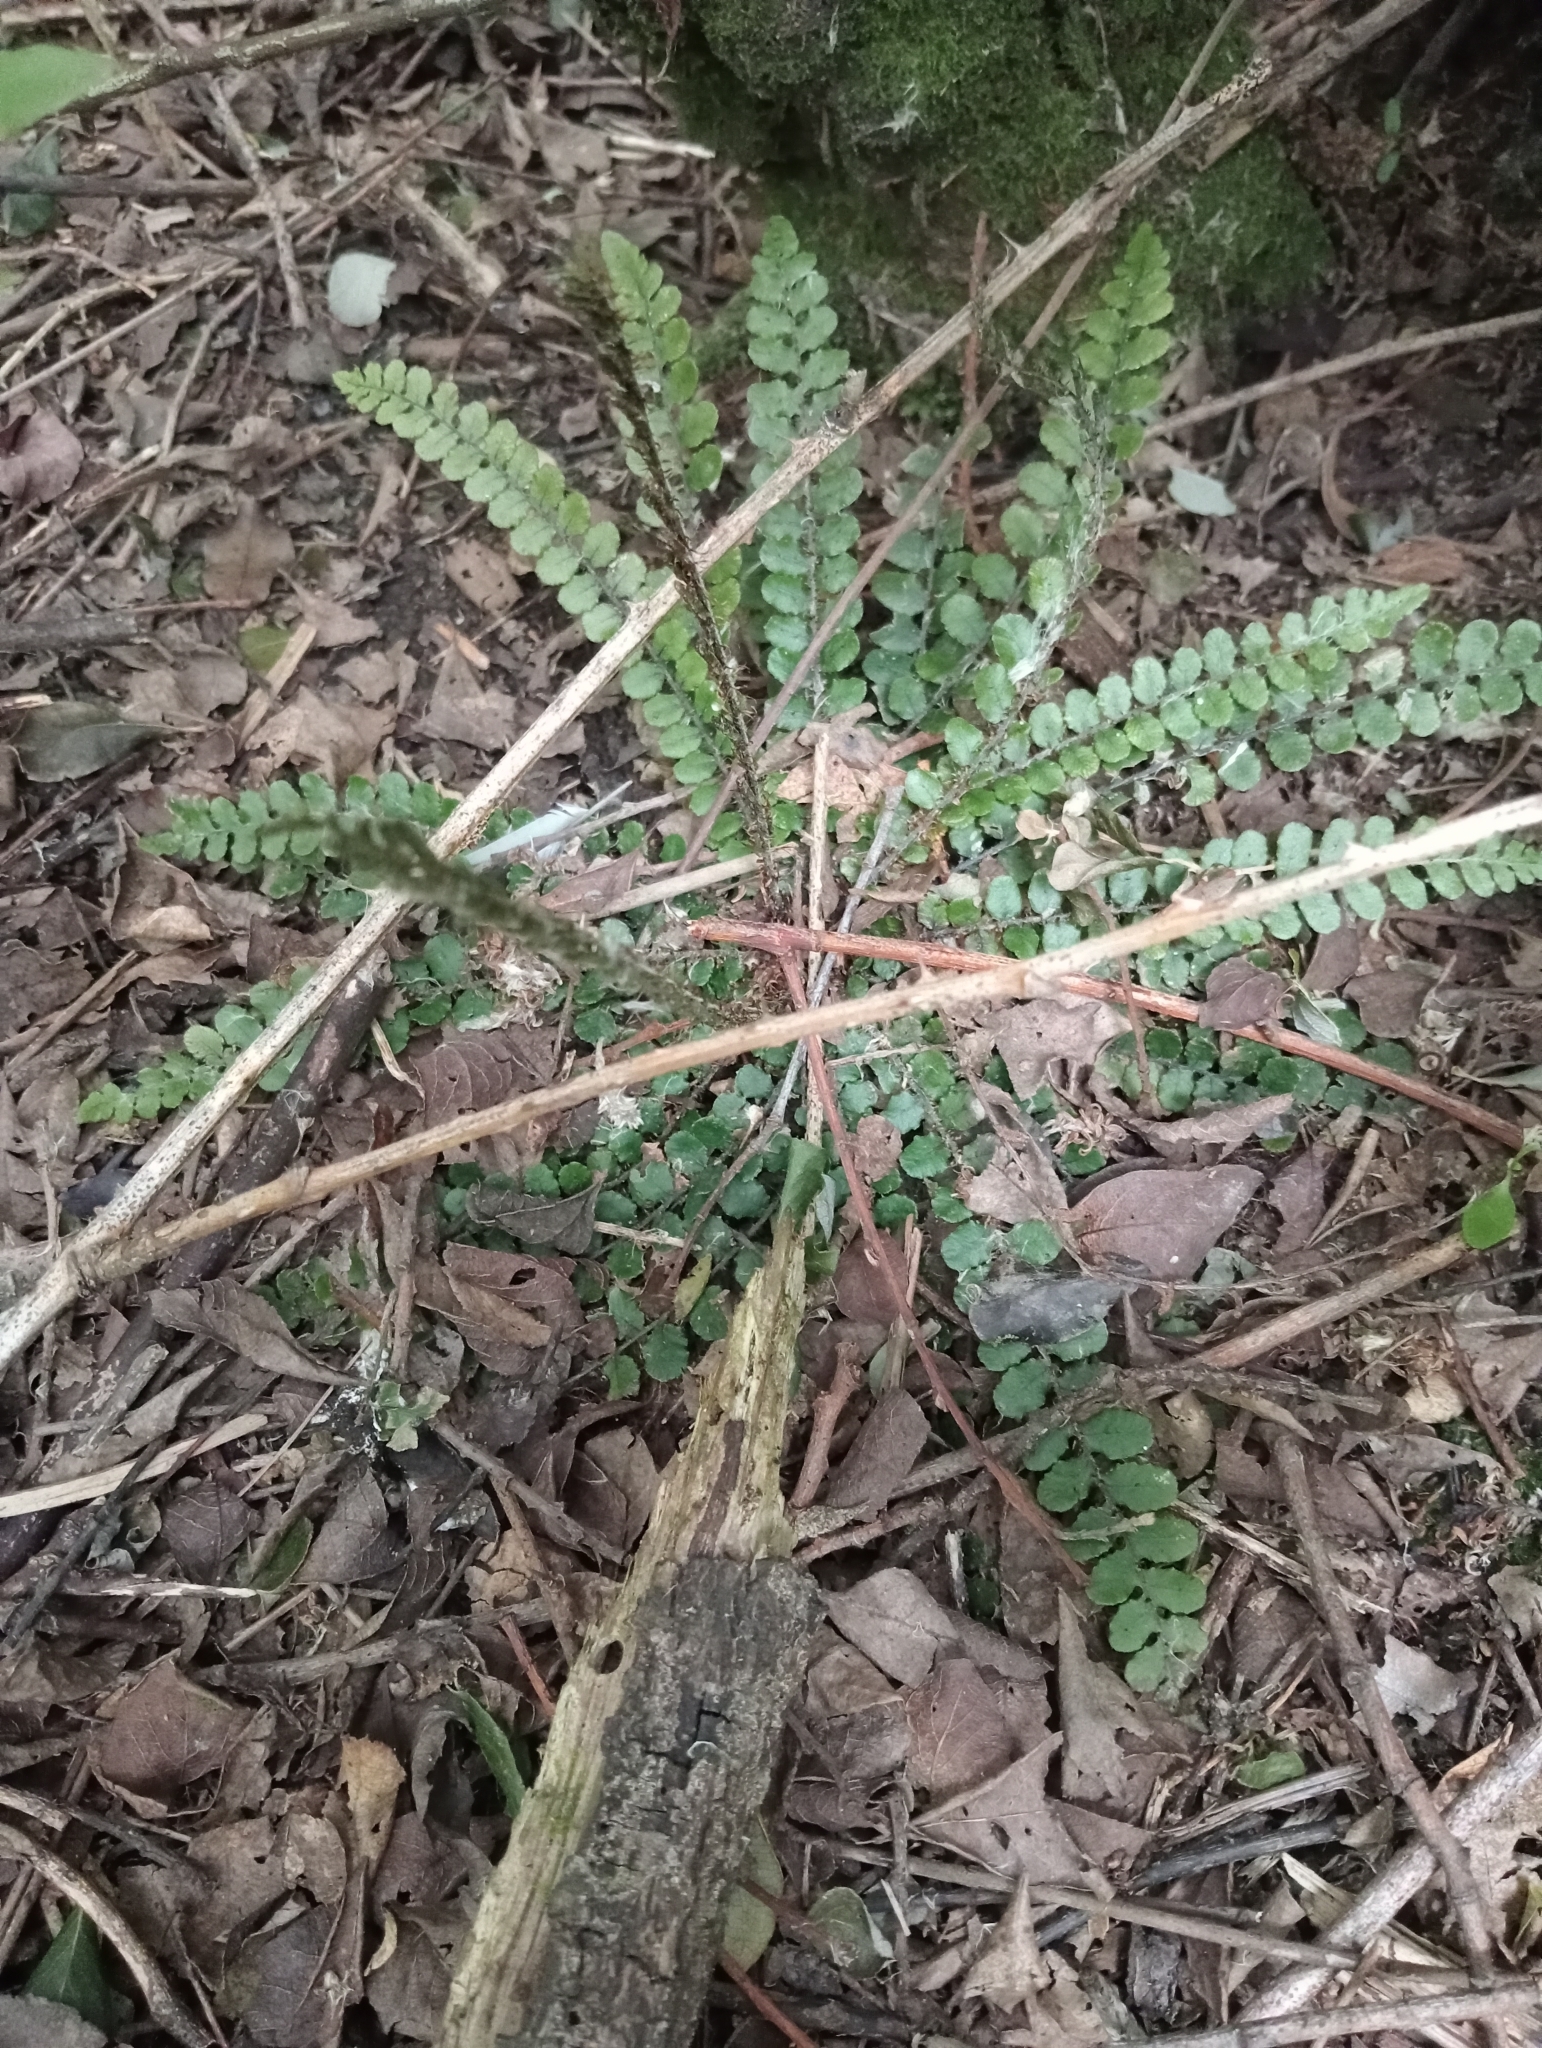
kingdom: Plantae
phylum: Tracheophyta
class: Polypodiopsida
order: Polypodiales
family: Blechnaceae
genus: Cranfillia
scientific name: Cranfillia fluviatilis
